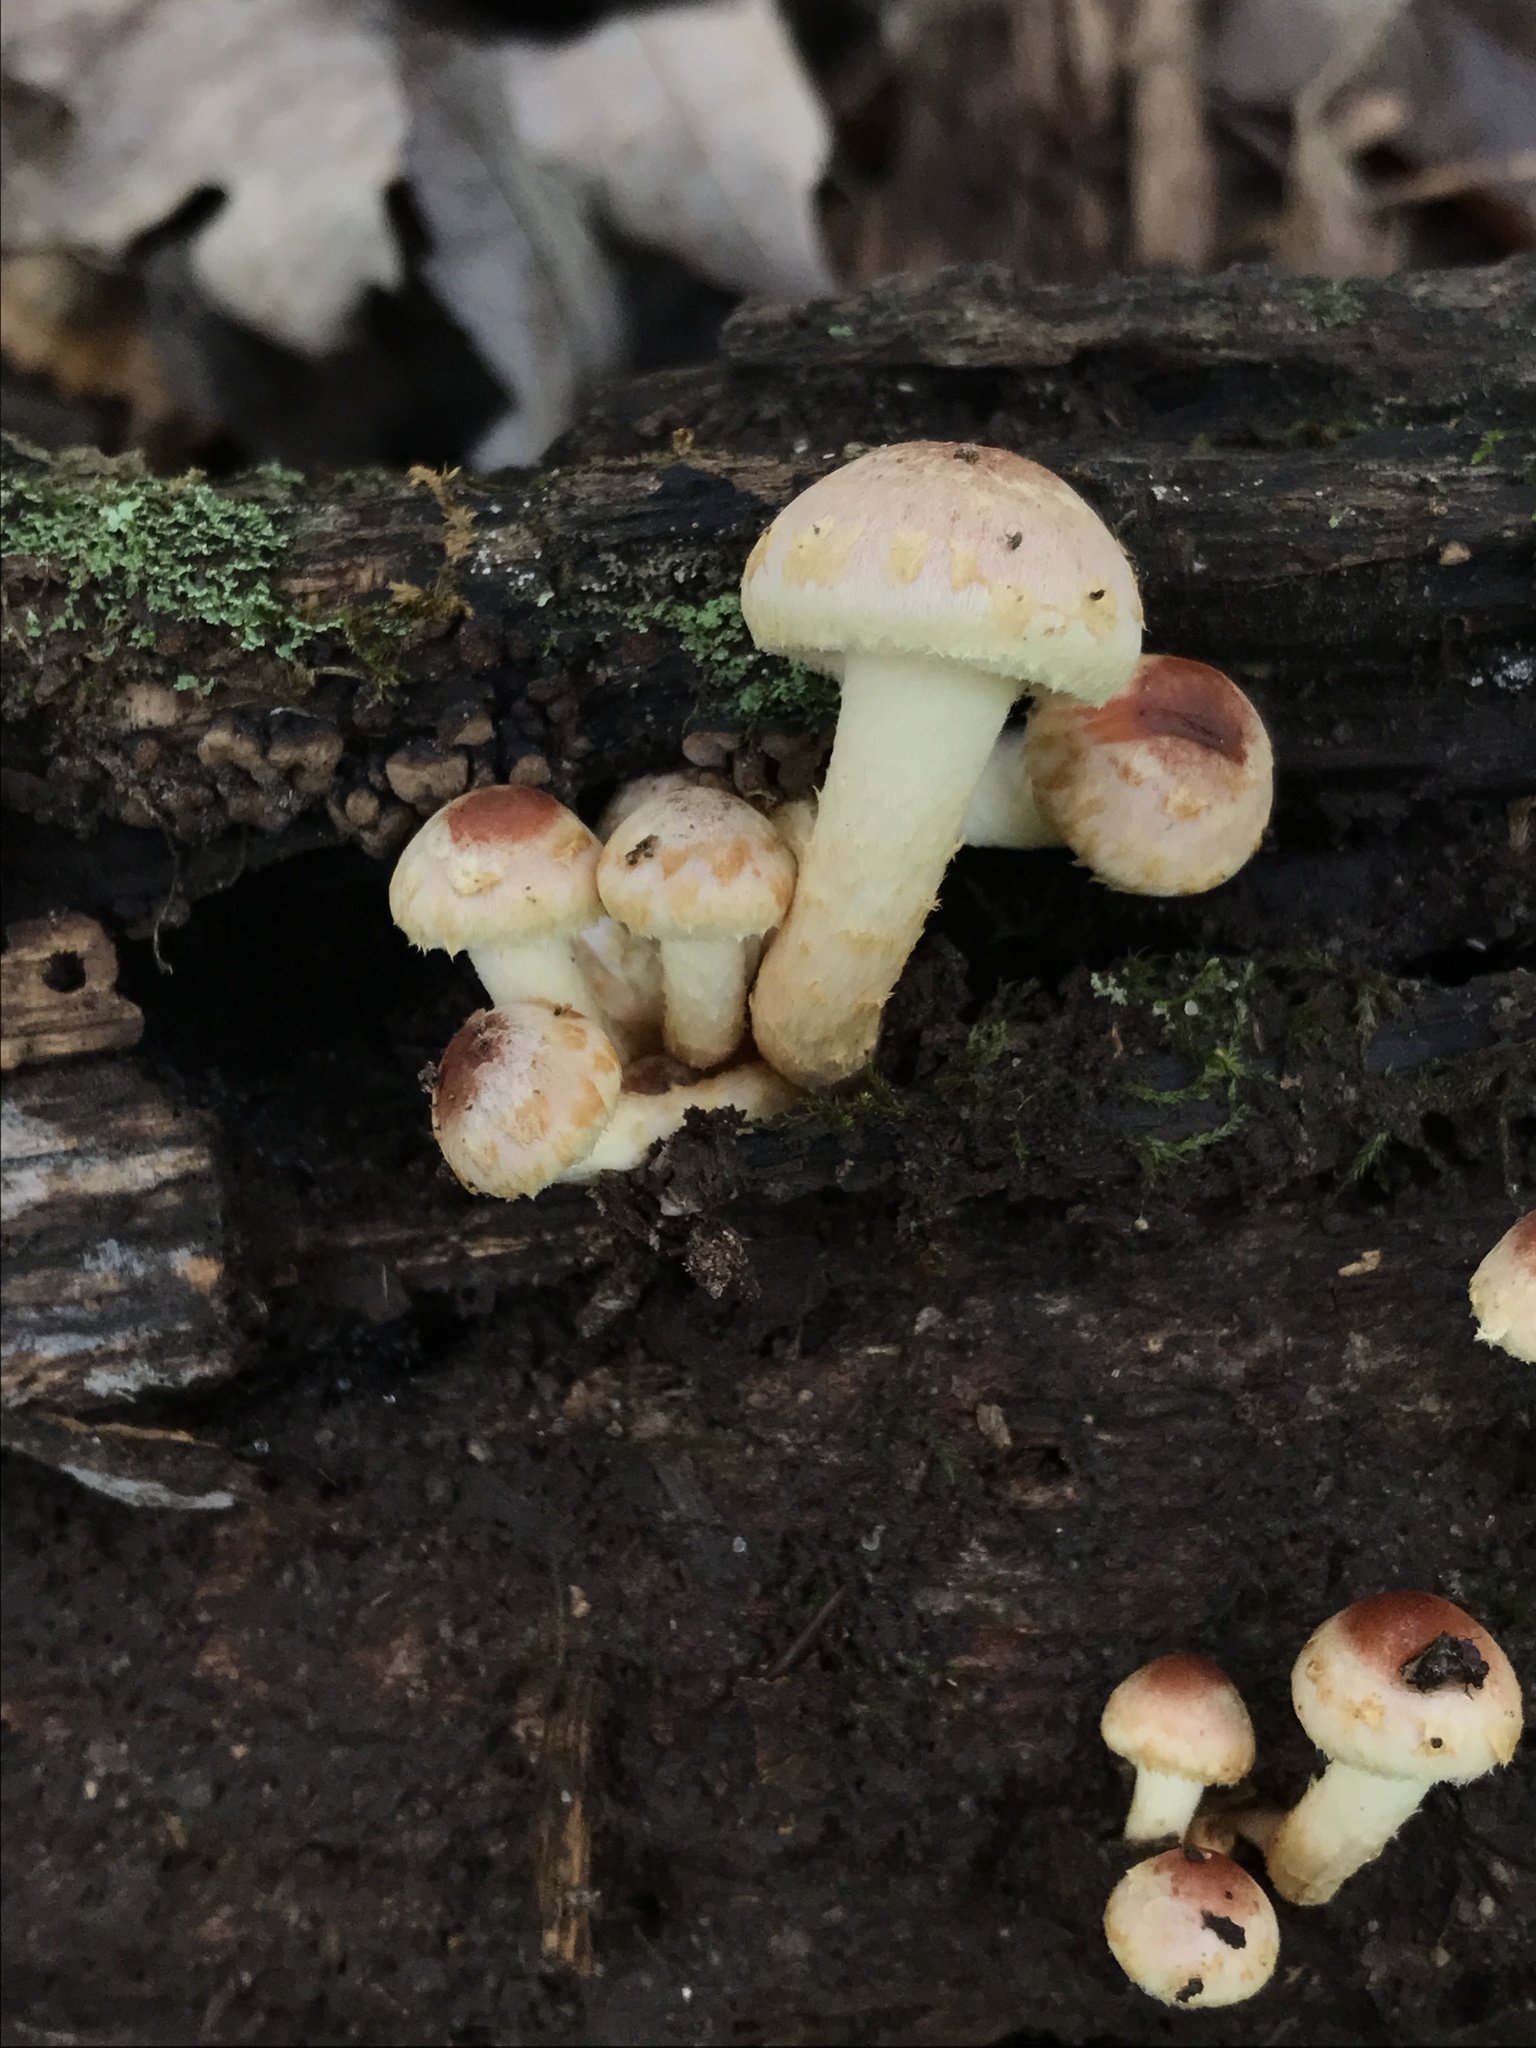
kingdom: Fungi
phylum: Basidiomycota
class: Agaricomycetes
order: Agaricales
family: Strophariaceae
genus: Hypholoma
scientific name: Hypholoma lateritium
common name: Brick caps
